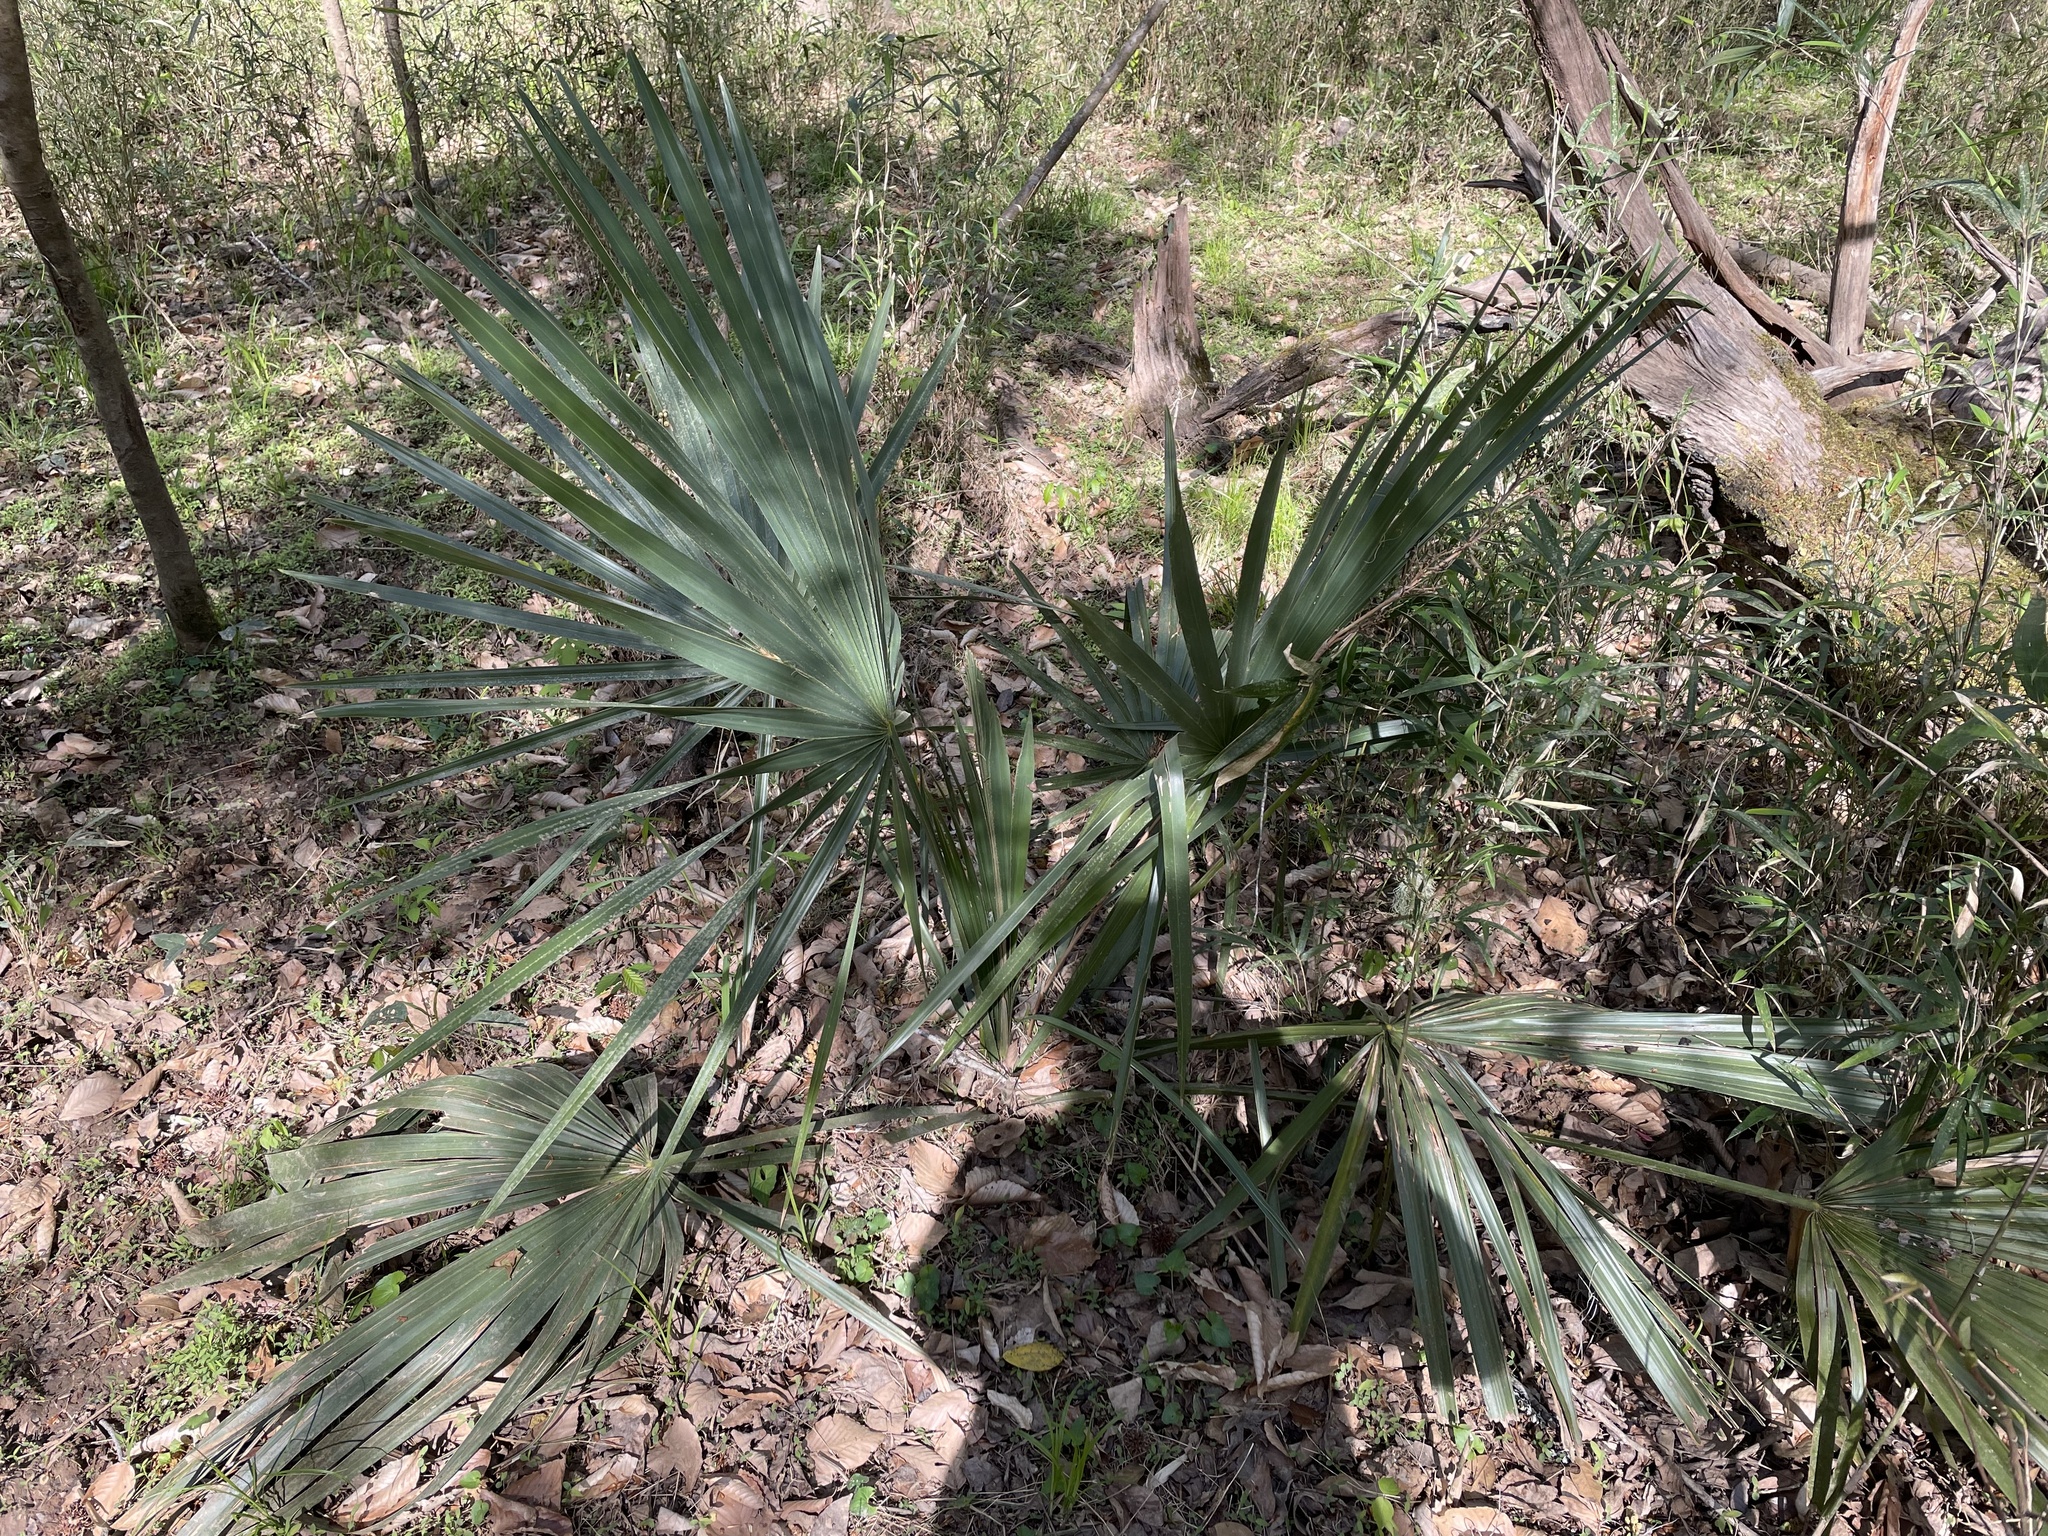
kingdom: Plantae
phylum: Tracheophyta
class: Liliopsida
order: Arecales
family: Arecaceae
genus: Sabal
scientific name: Sabal minor
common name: Dwarf palmetto
